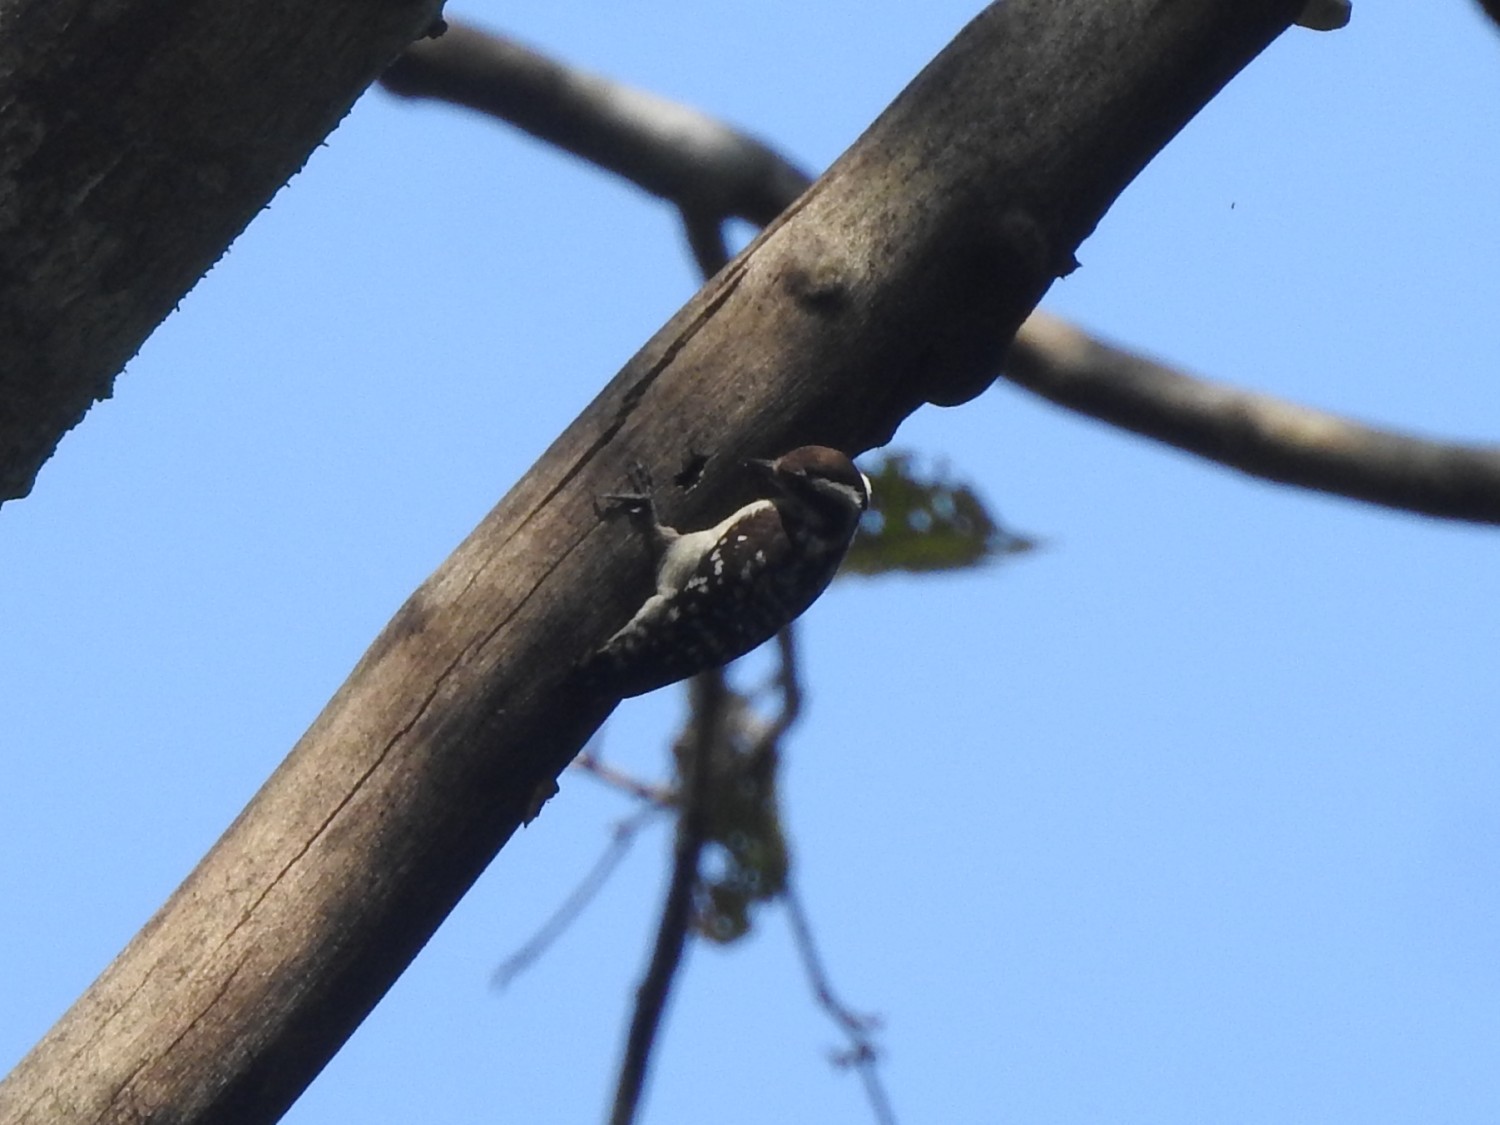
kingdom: Animalia
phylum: Chordata
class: Aves
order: Piciformes
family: Picidae
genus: Yungipicus
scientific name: Yungipicus nanus
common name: Brown-capped pygmy woodpecker
